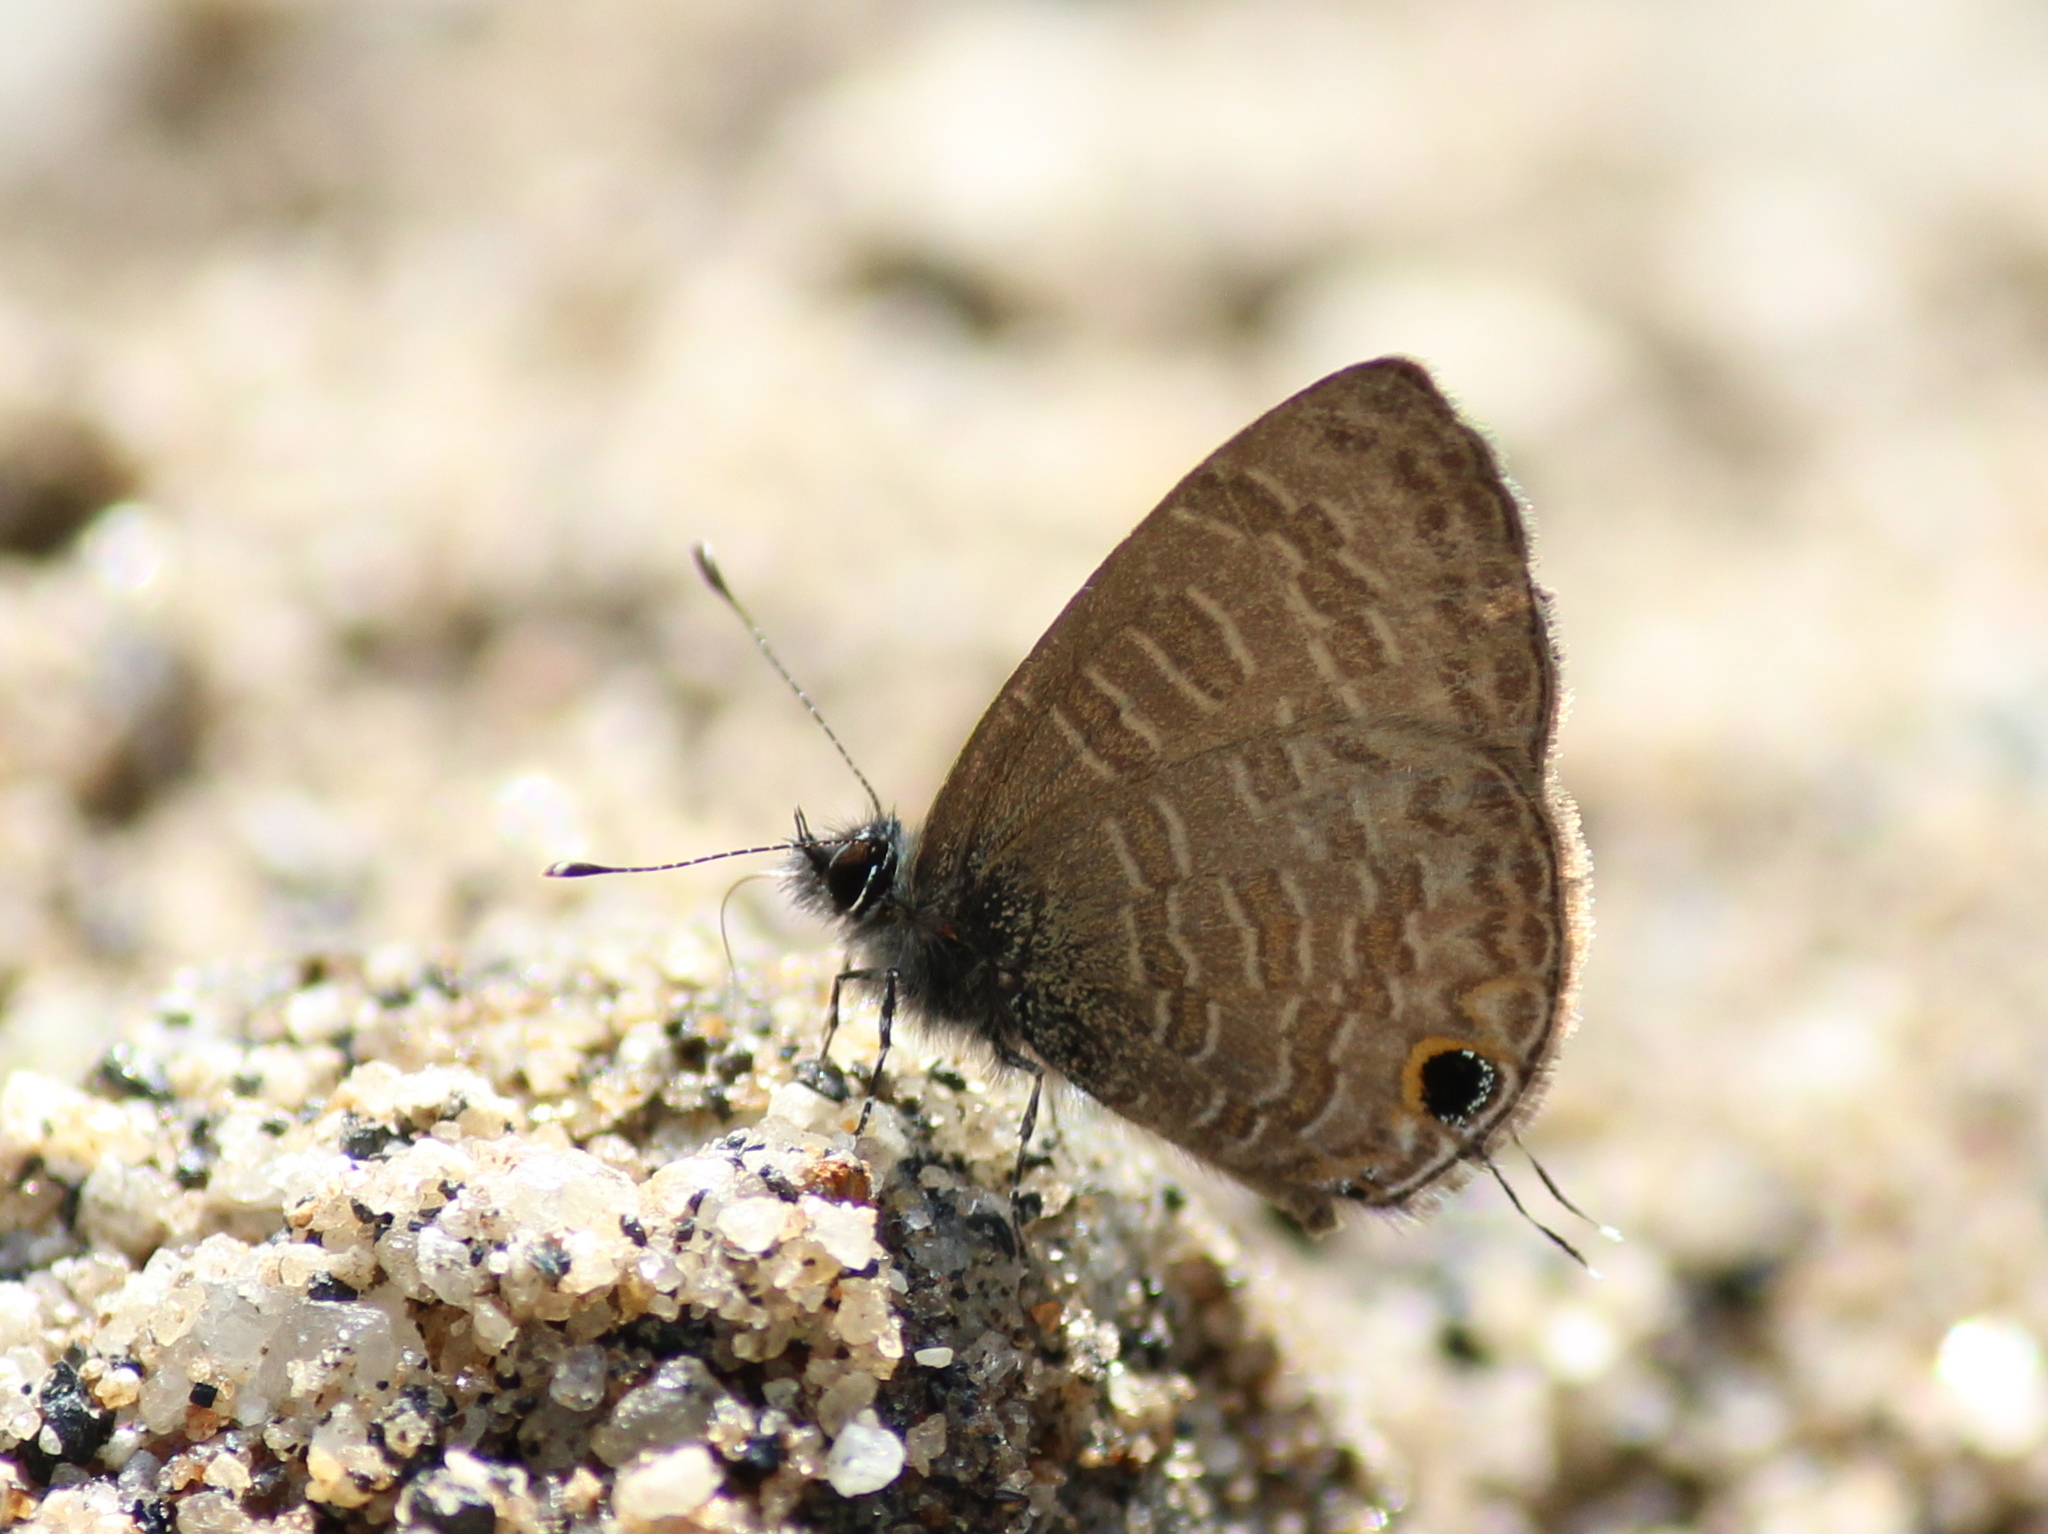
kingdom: Animalia
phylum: Arthropoda
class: Insecta
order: Lepidoptera
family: Lycaenidae
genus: Prosotas
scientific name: Prosotas nora
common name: Common line blue
